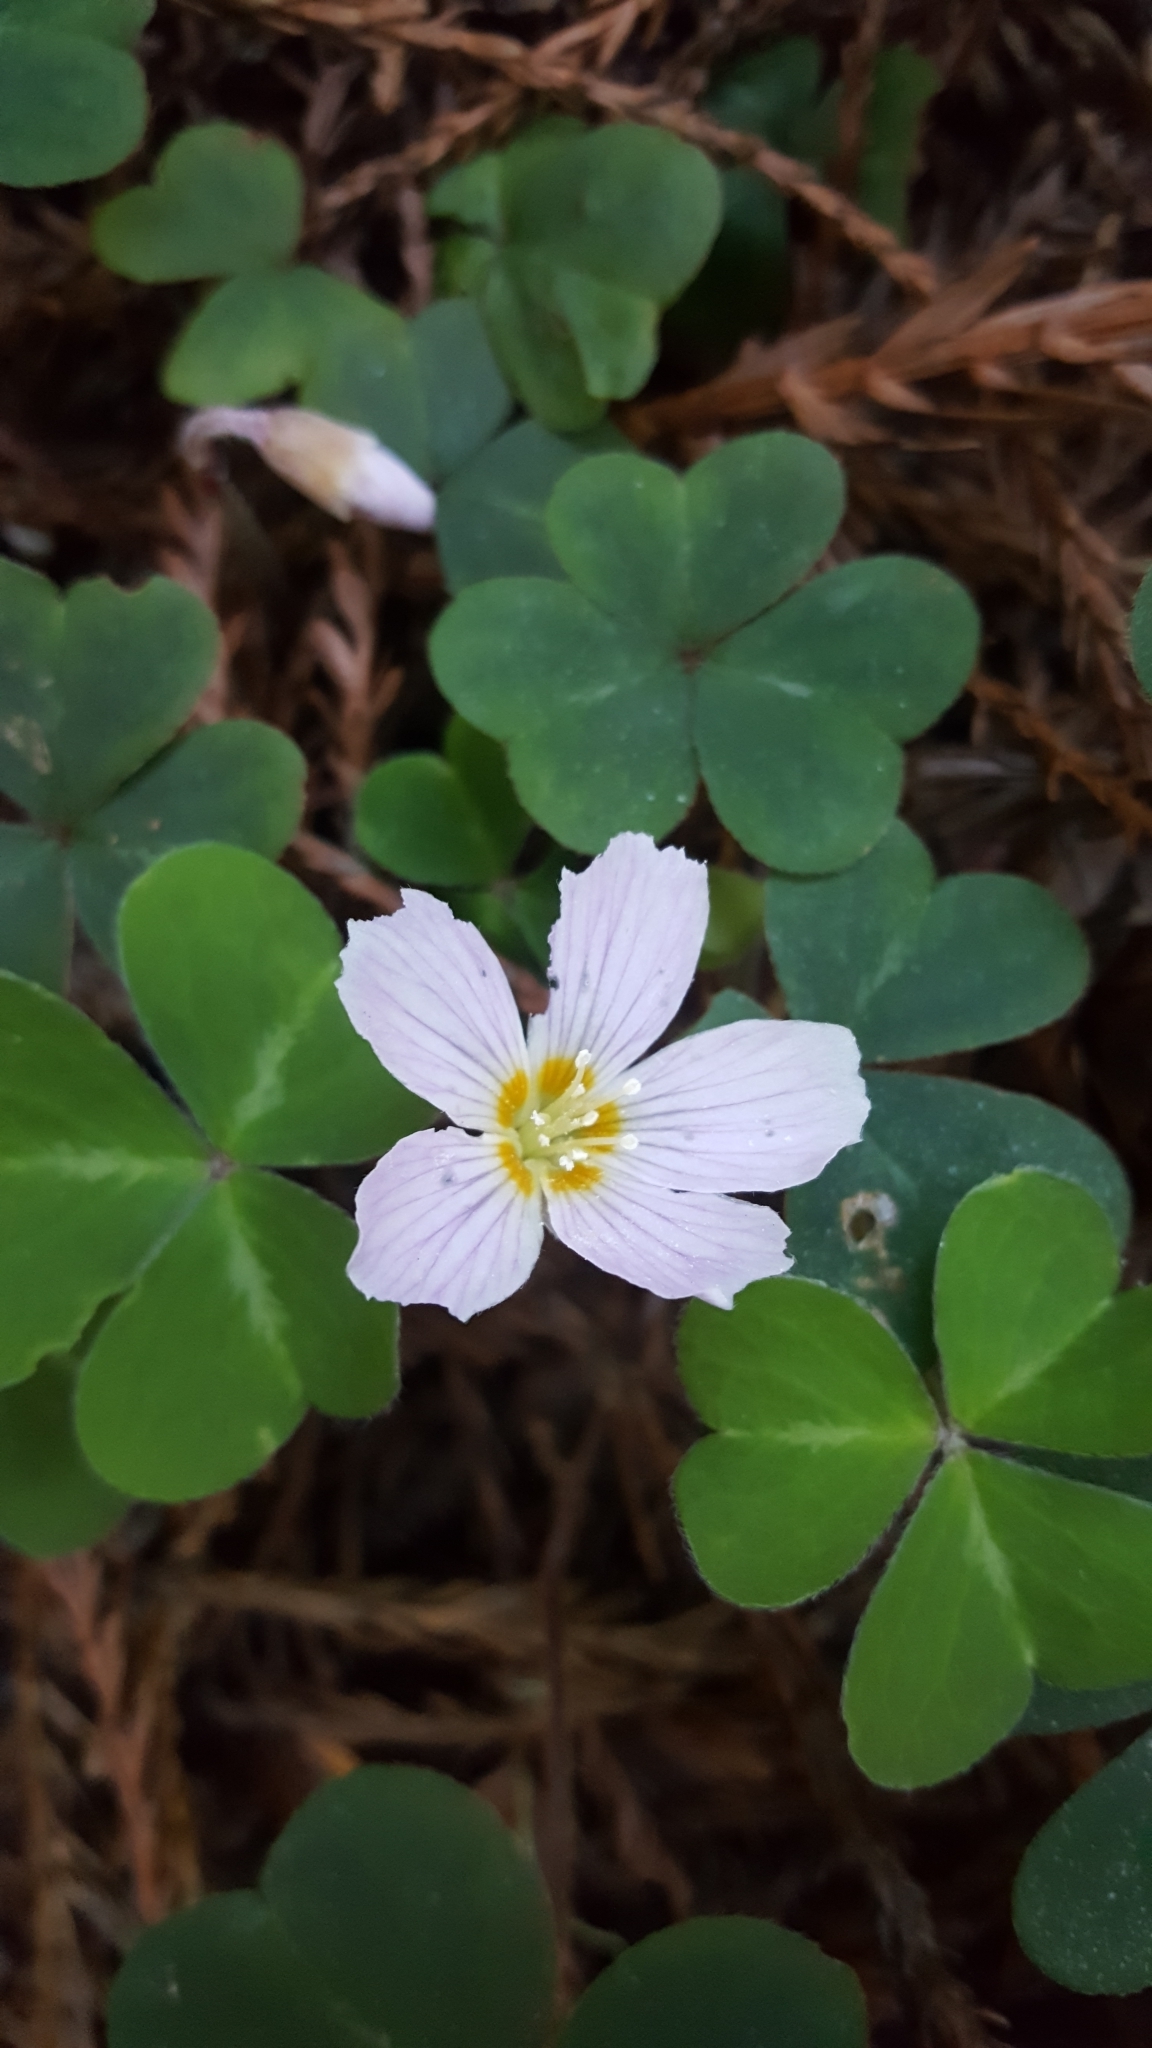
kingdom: Plantae
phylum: Tracheophyta
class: Magnoliopsida
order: Oxalidales
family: Oxalidaceae
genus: Oxalis
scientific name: Oxalis oregana
